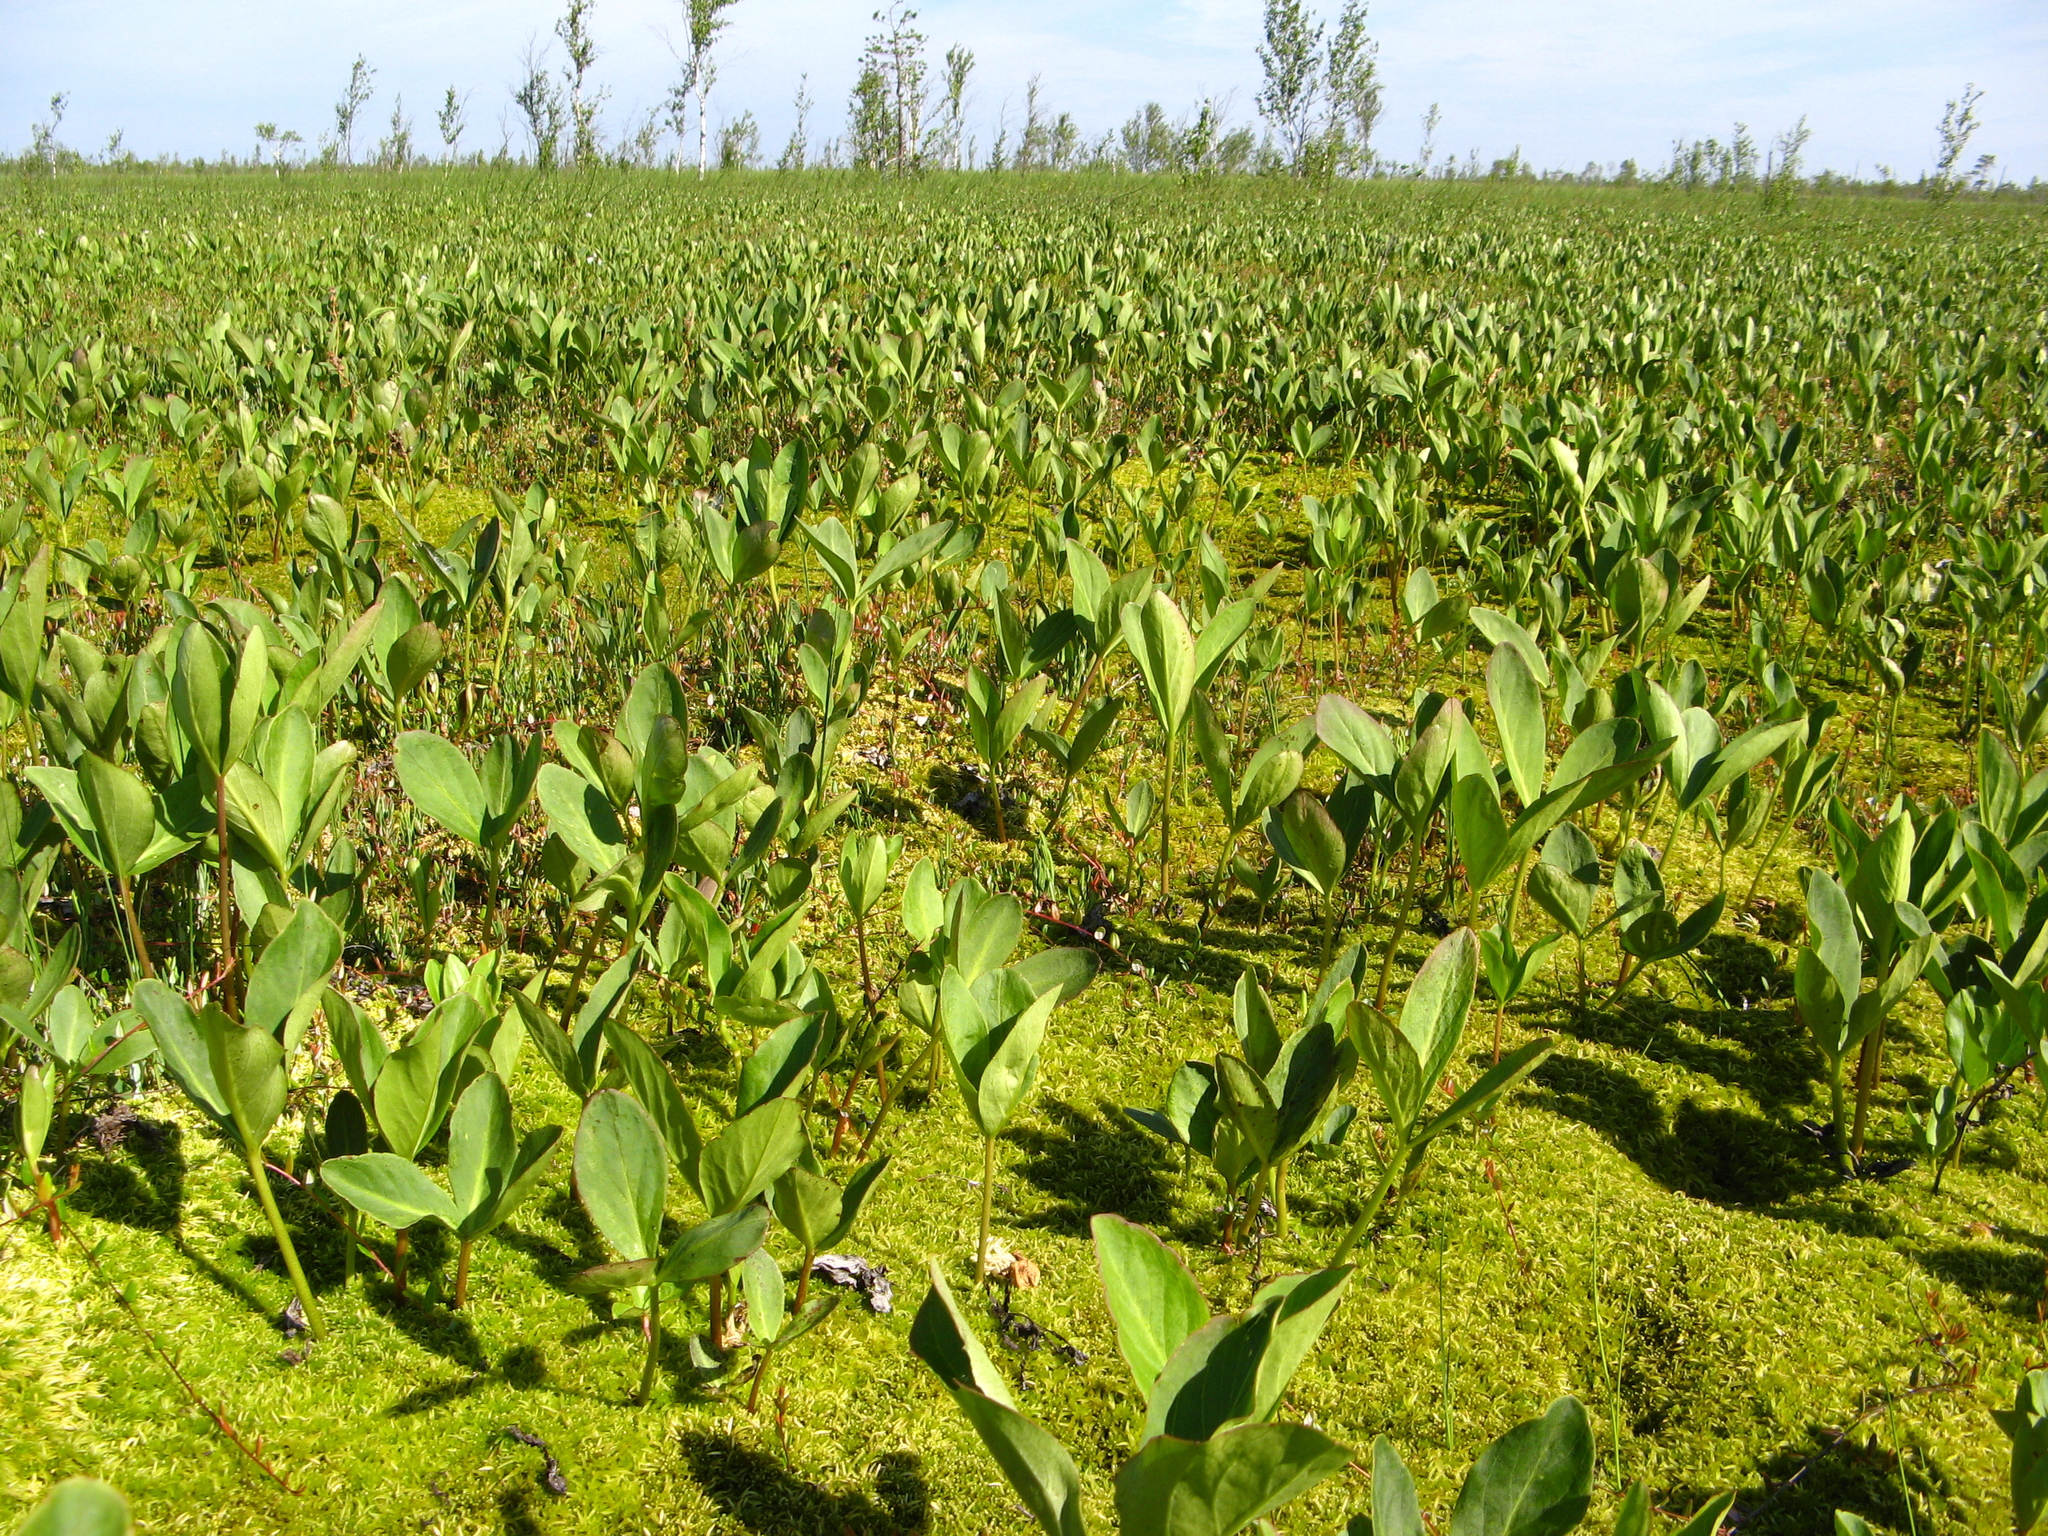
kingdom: Plantae
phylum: Tracheophyta
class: Magnoliopsida
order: Asterales
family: Menyanthaceae
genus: Menyanthes
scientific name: Menyanthes trifoliata
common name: Bogbean
